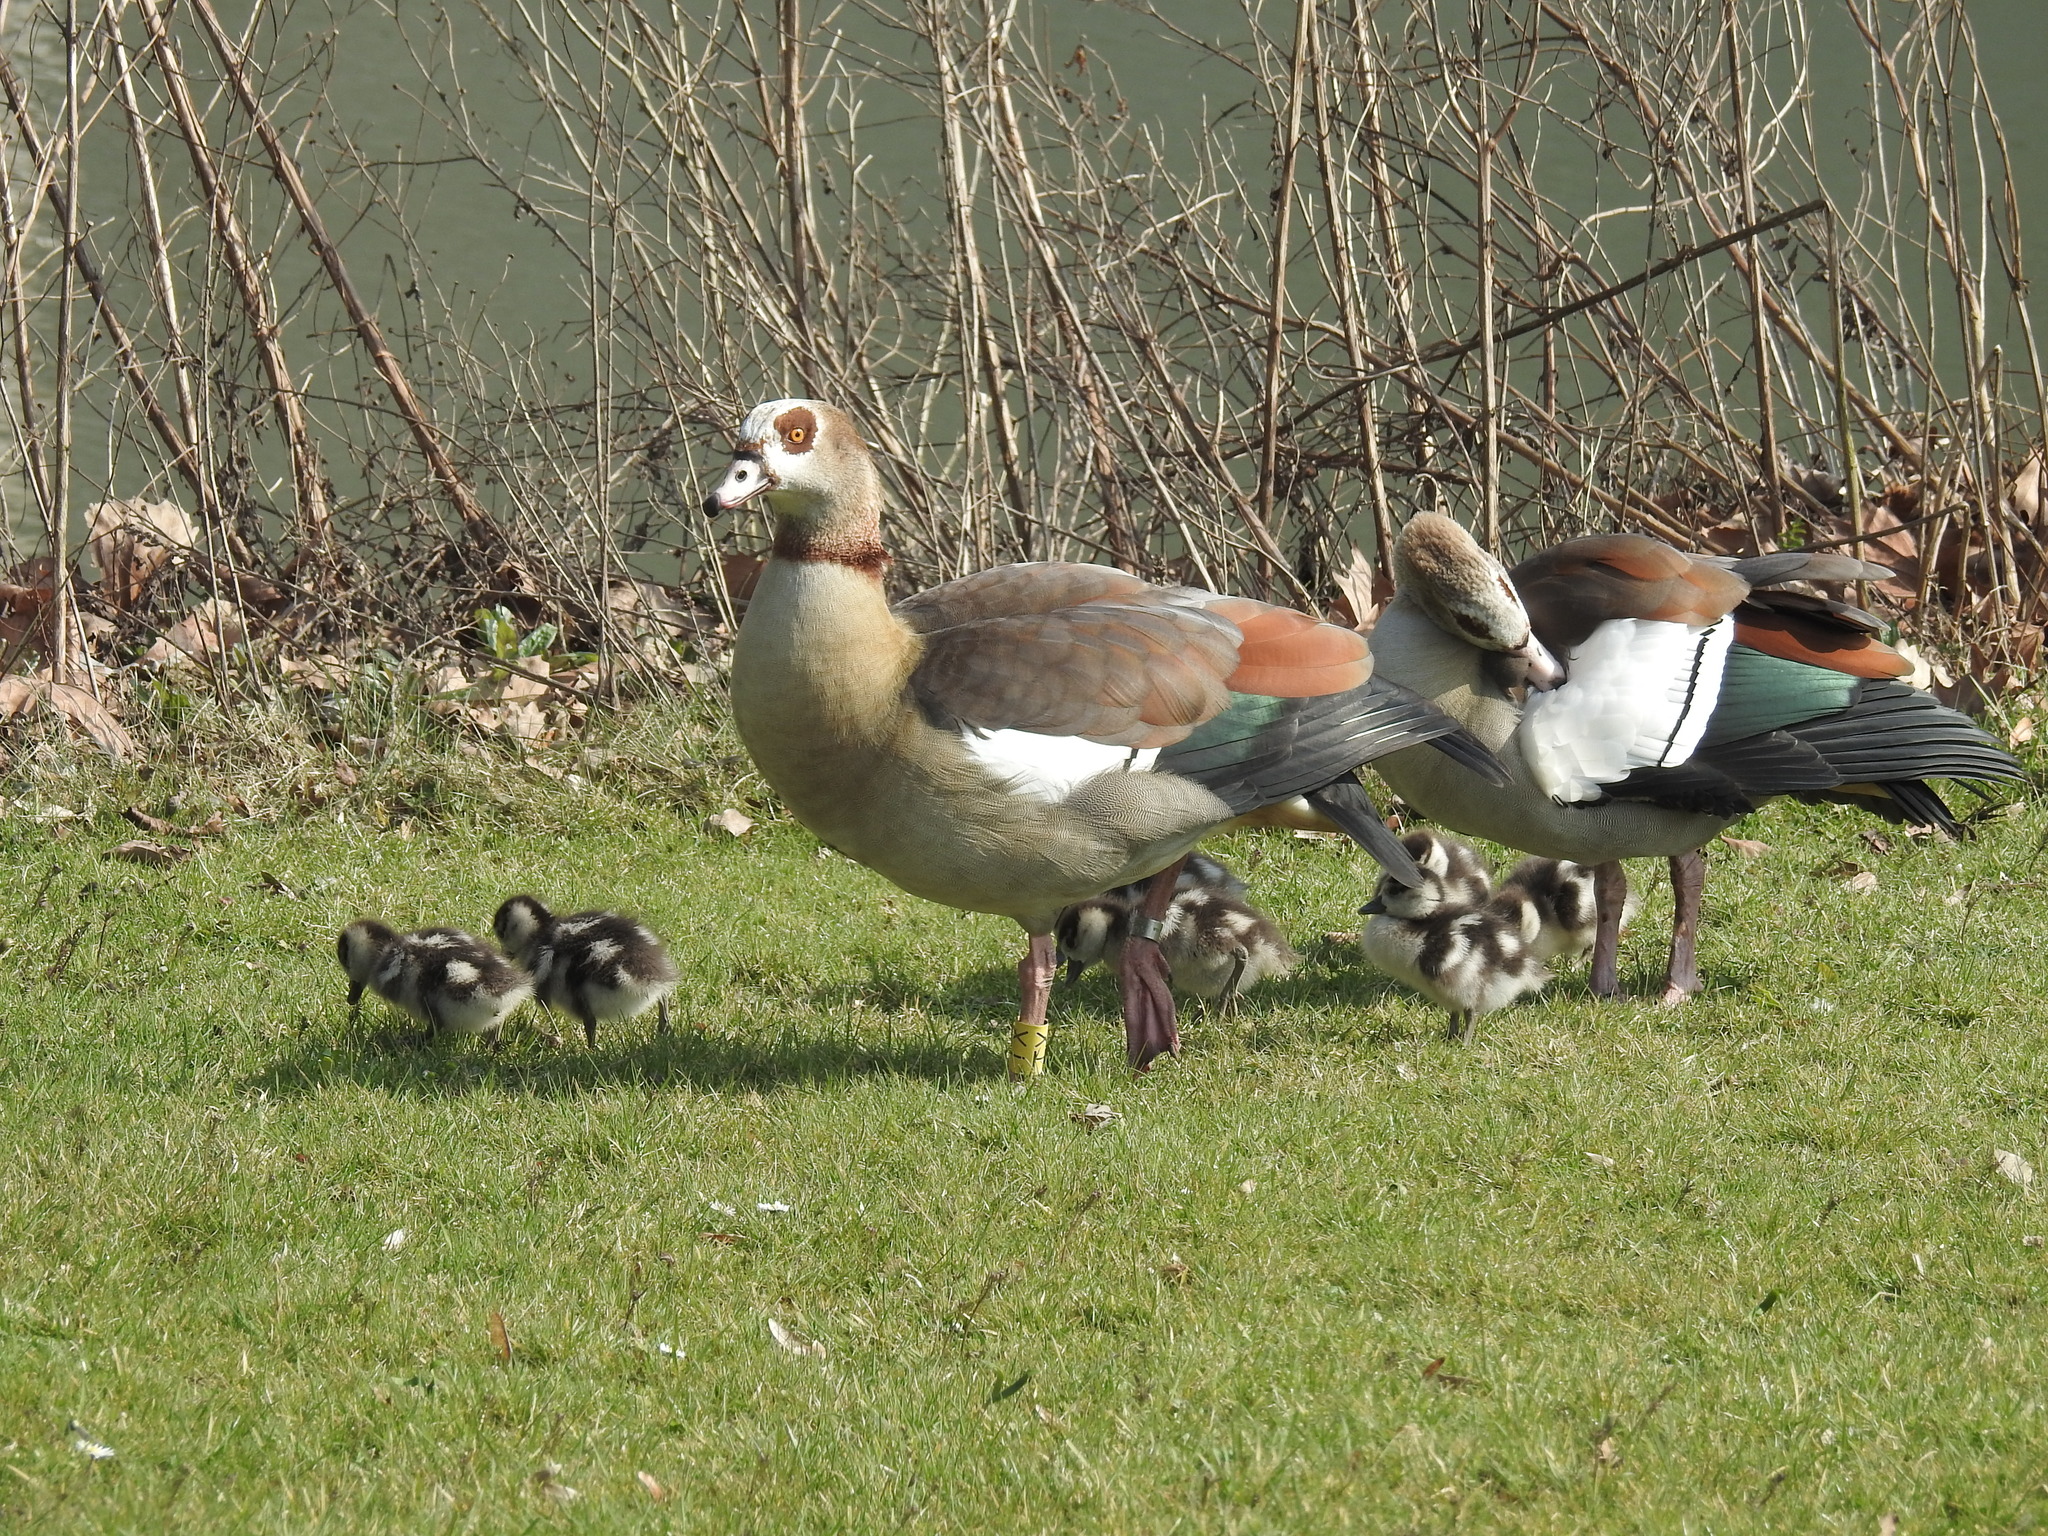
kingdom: Animalia
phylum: Chordata
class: Aves
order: Anseriformes
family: Anatidae
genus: Alopochen
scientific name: Alopochen aegyptiaca
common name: Egyptian goose
